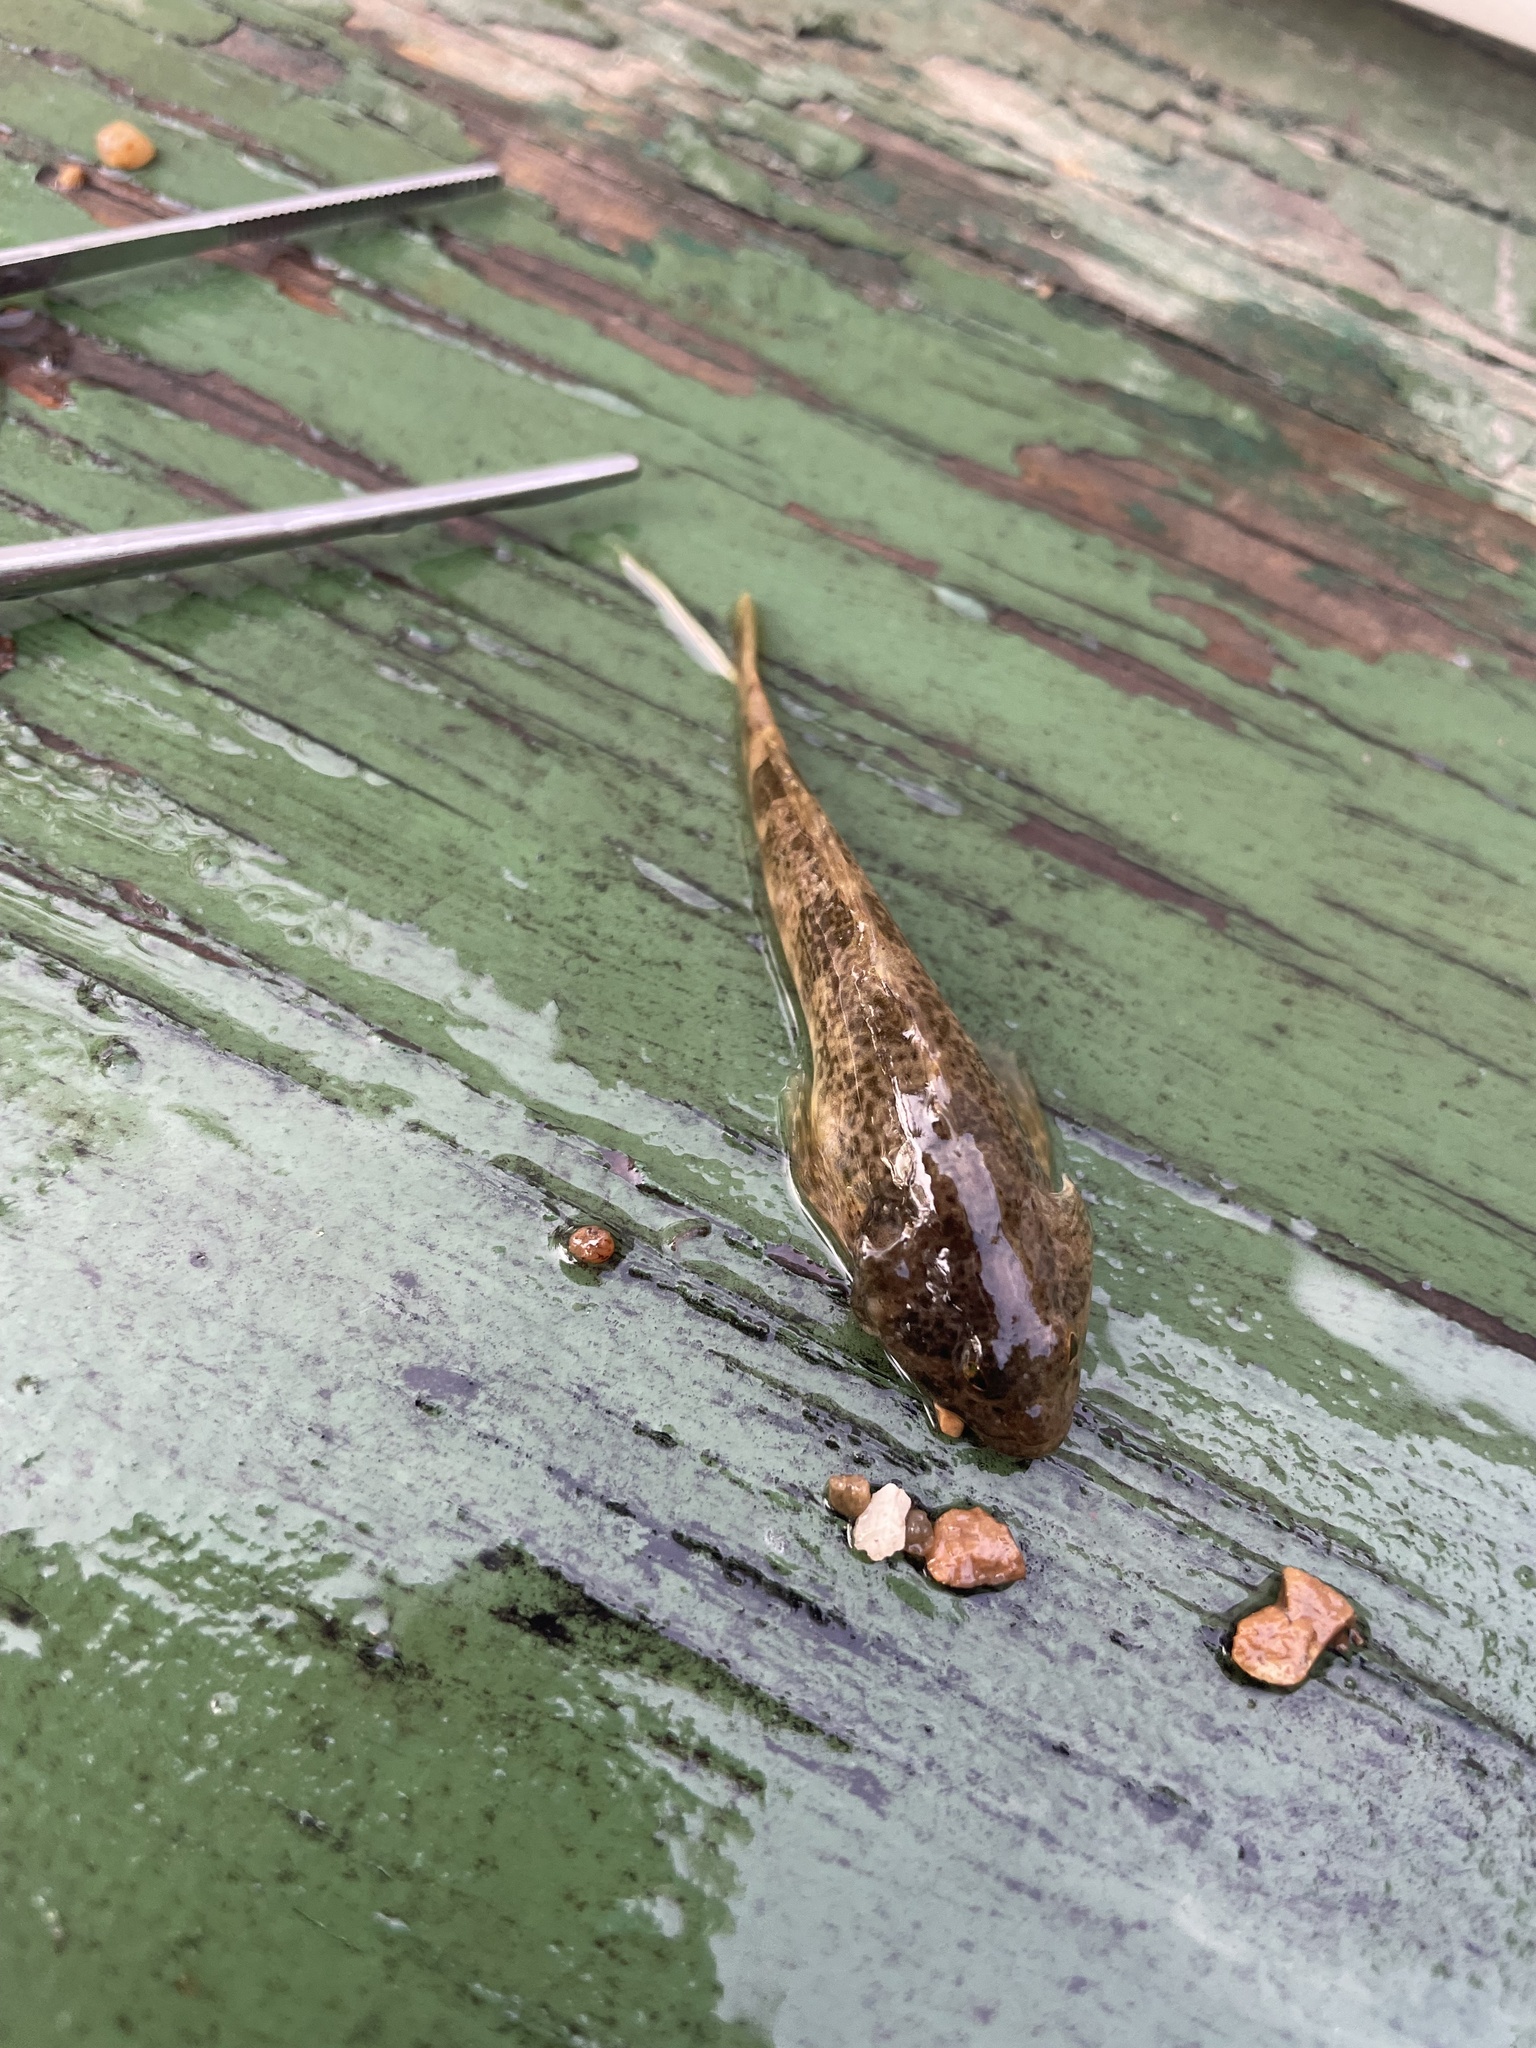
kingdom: Animalia
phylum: Chordata
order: Scorpaeniformes
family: Cottidae
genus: Cottus
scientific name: Cottus bairdii
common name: Mottled sculpin
